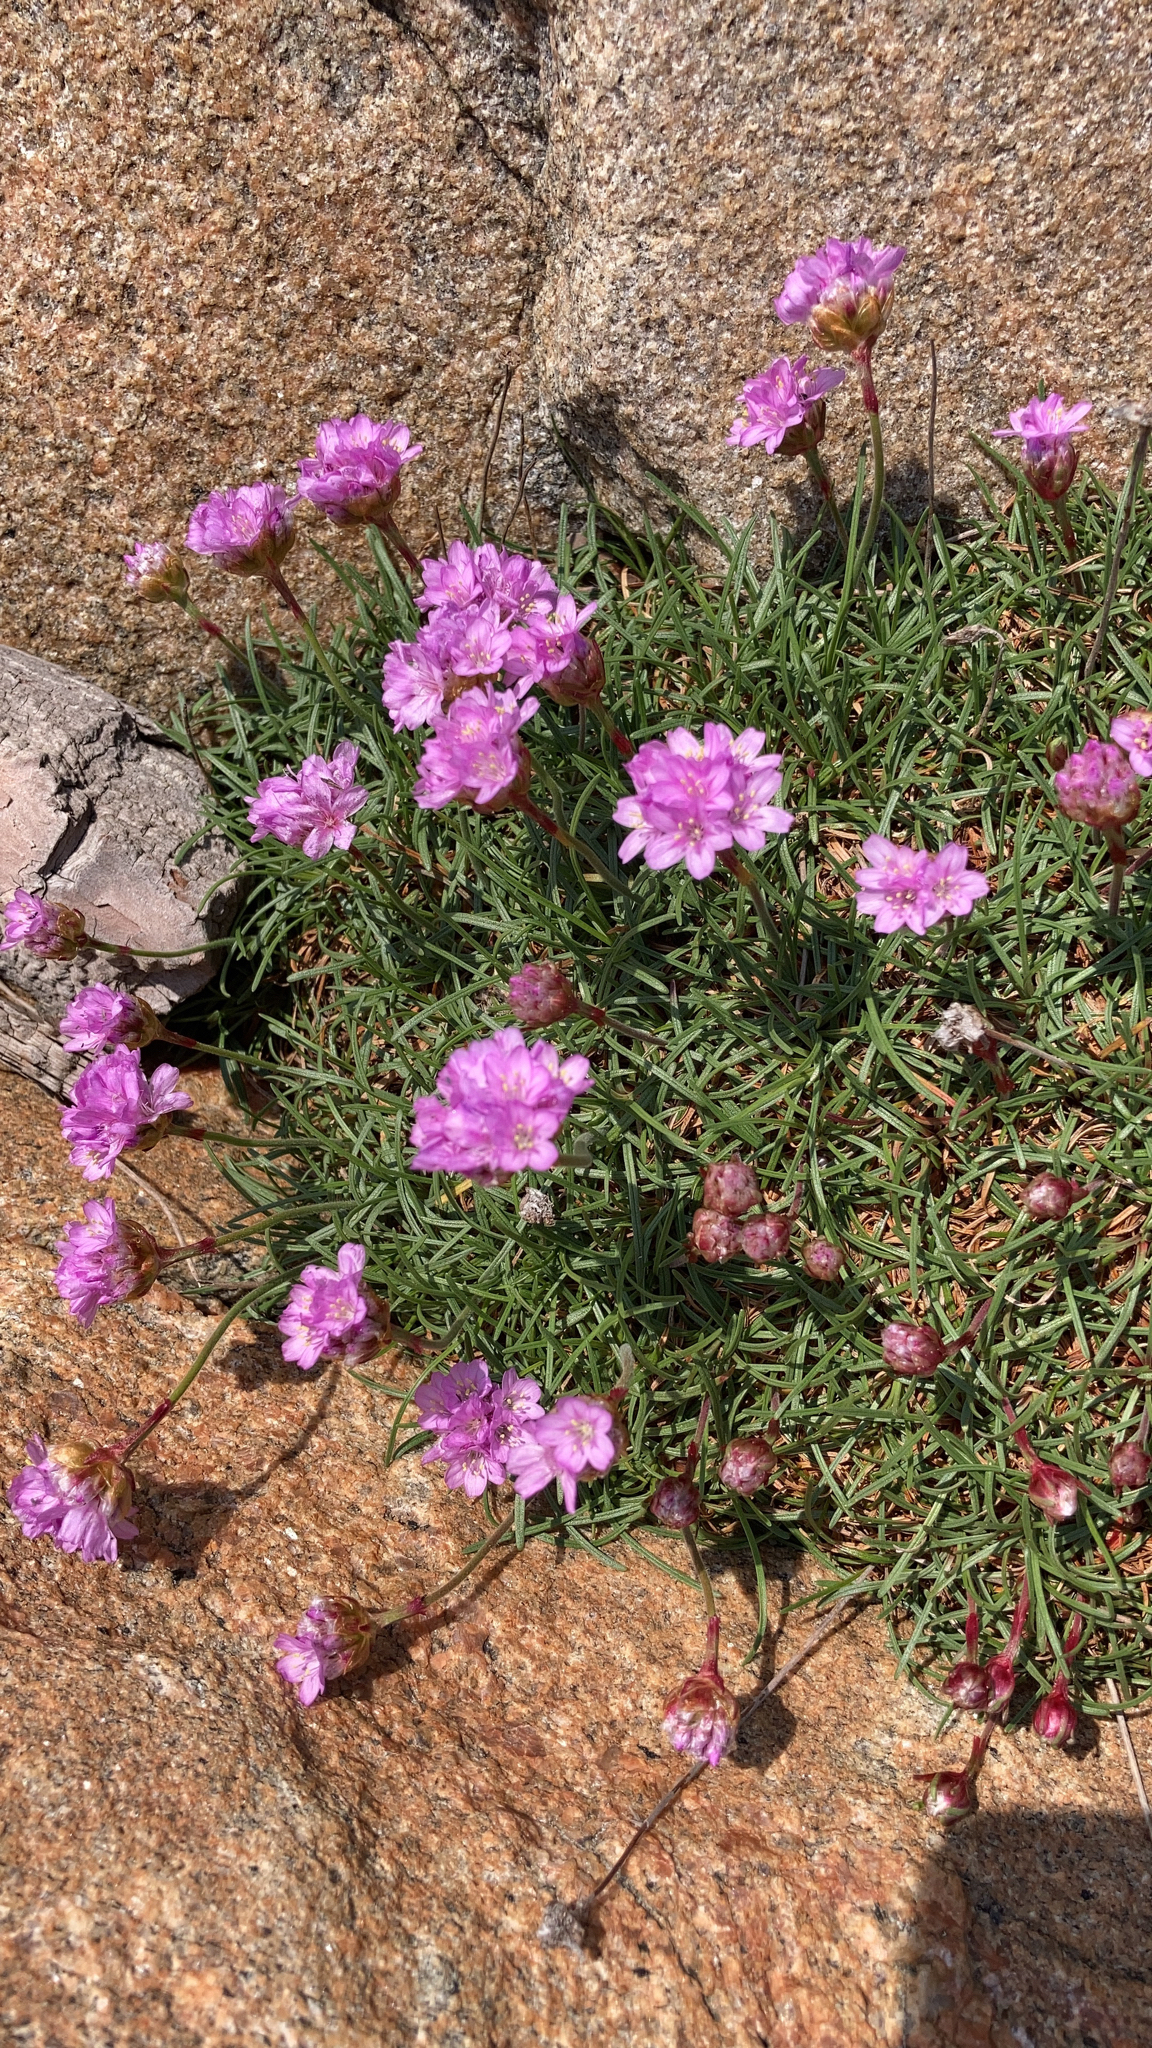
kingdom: Plantae
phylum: Tracheophyta
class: Magnoliopsida
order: Caryophyllales
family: Plumbaginaceae
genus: Armeria
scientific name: Armeria maritima
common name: Thrift
